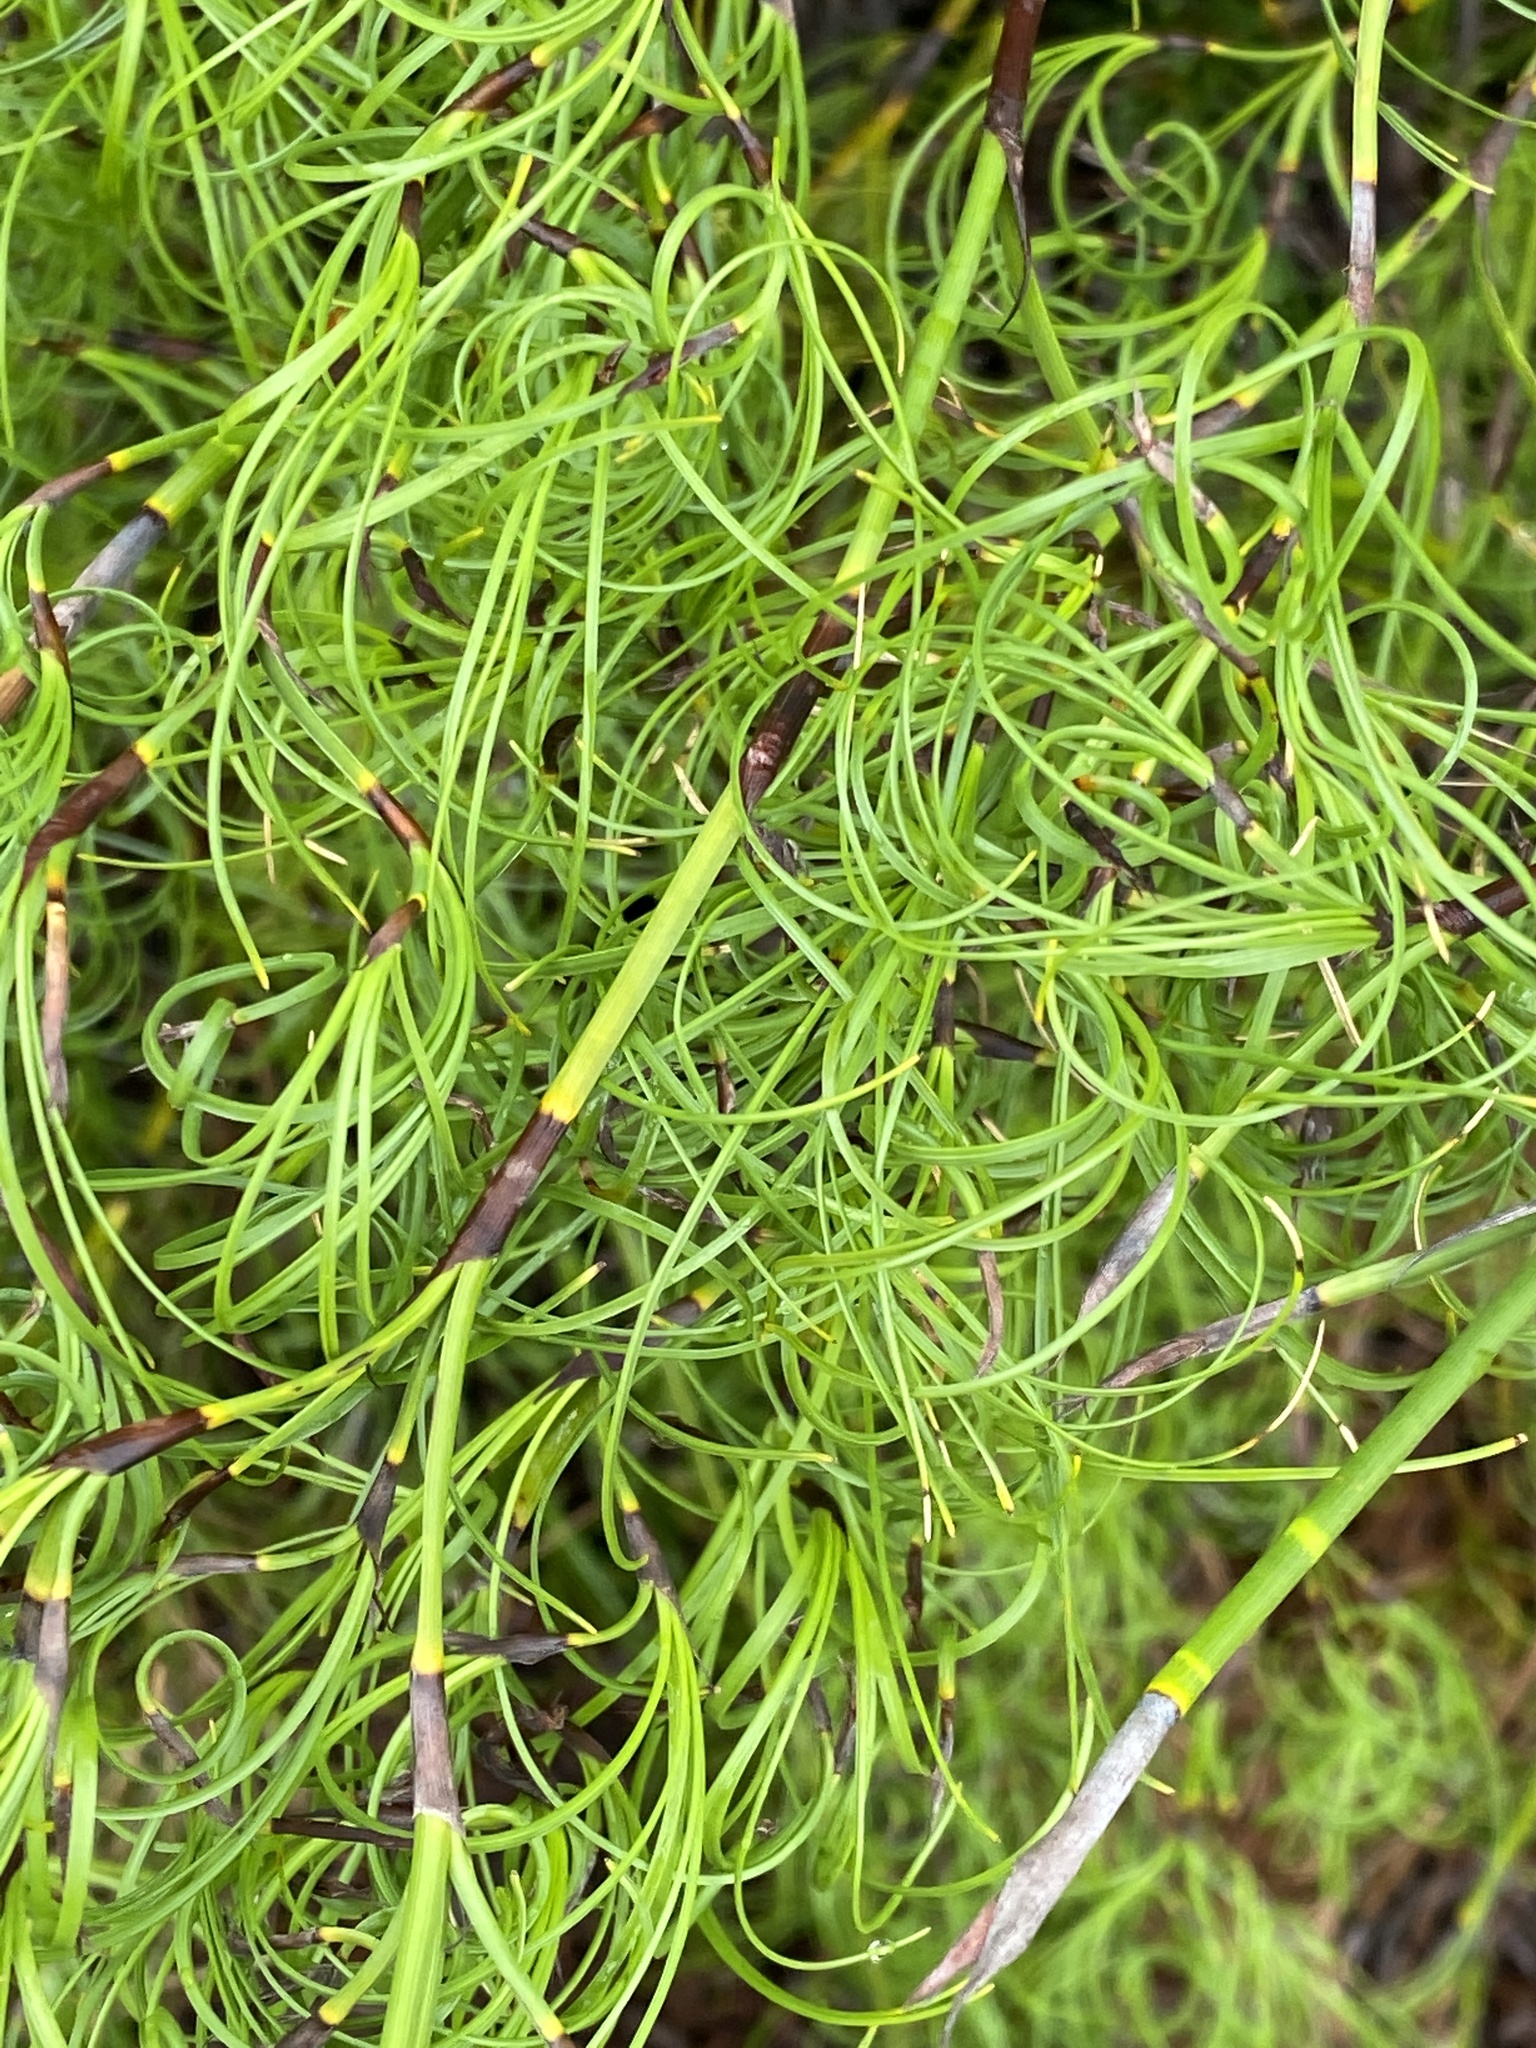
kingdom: Plantae
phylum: Tracheophyta
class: Liliopsida
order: Poales
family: Cyperaceae
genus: Caustis
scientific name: Caustis recurvata
